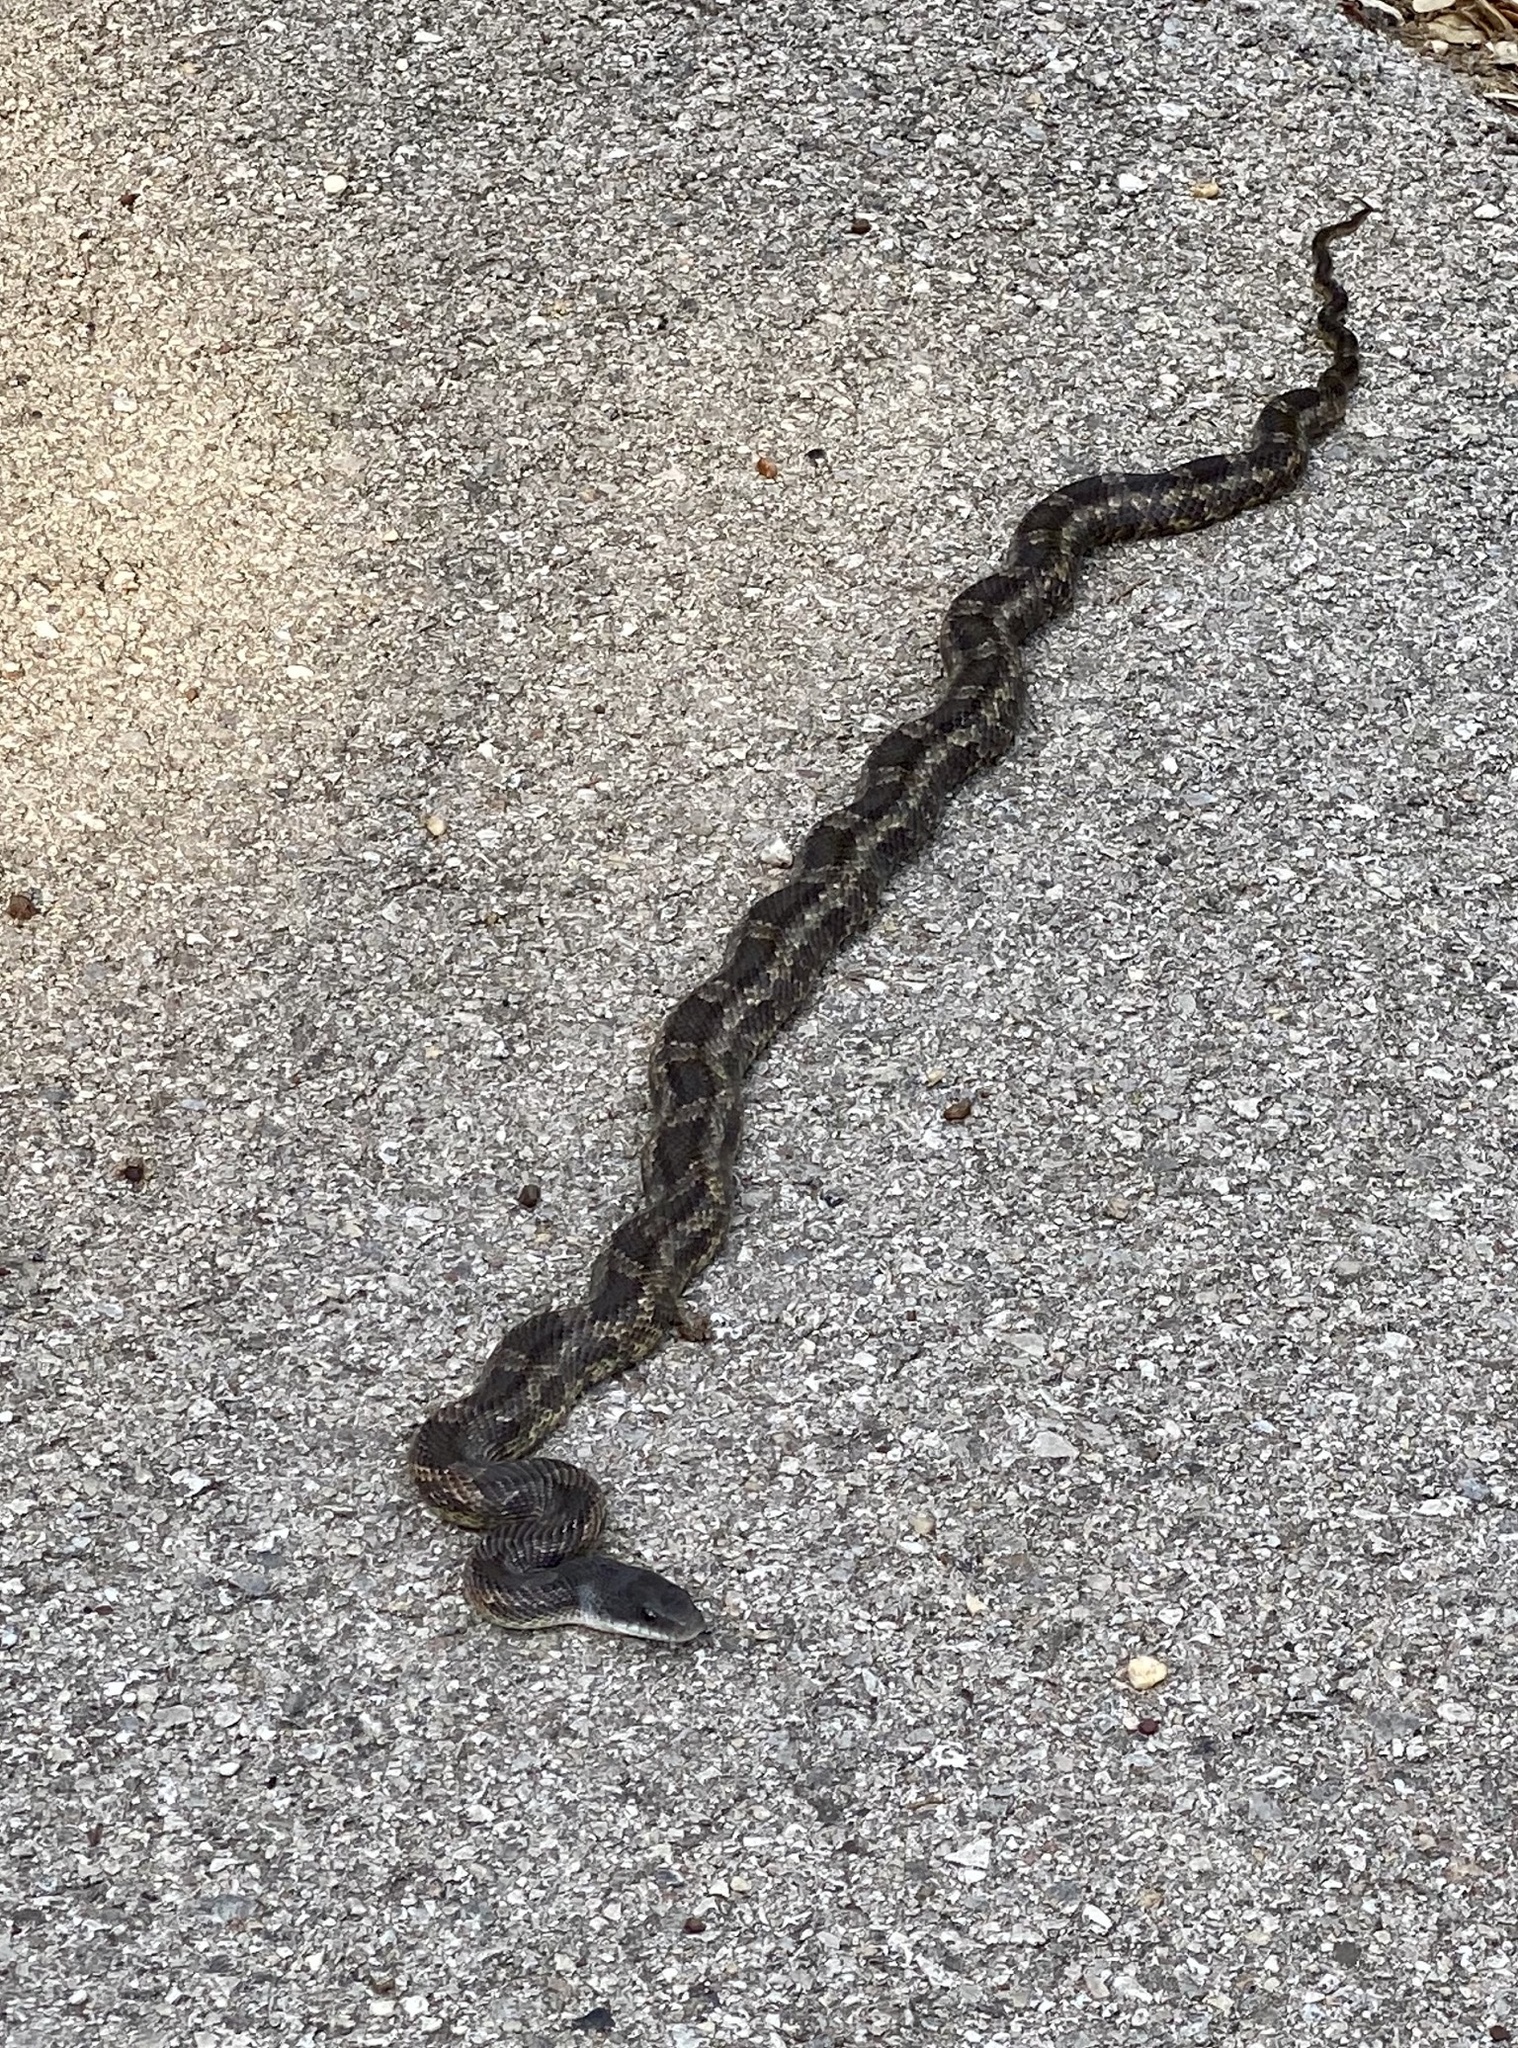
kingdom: Animalia
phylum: Chordata
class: Squamata
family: Colubridae
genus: Pantherophis
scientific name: Pantherophis obsoletus
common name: Black rat snake
